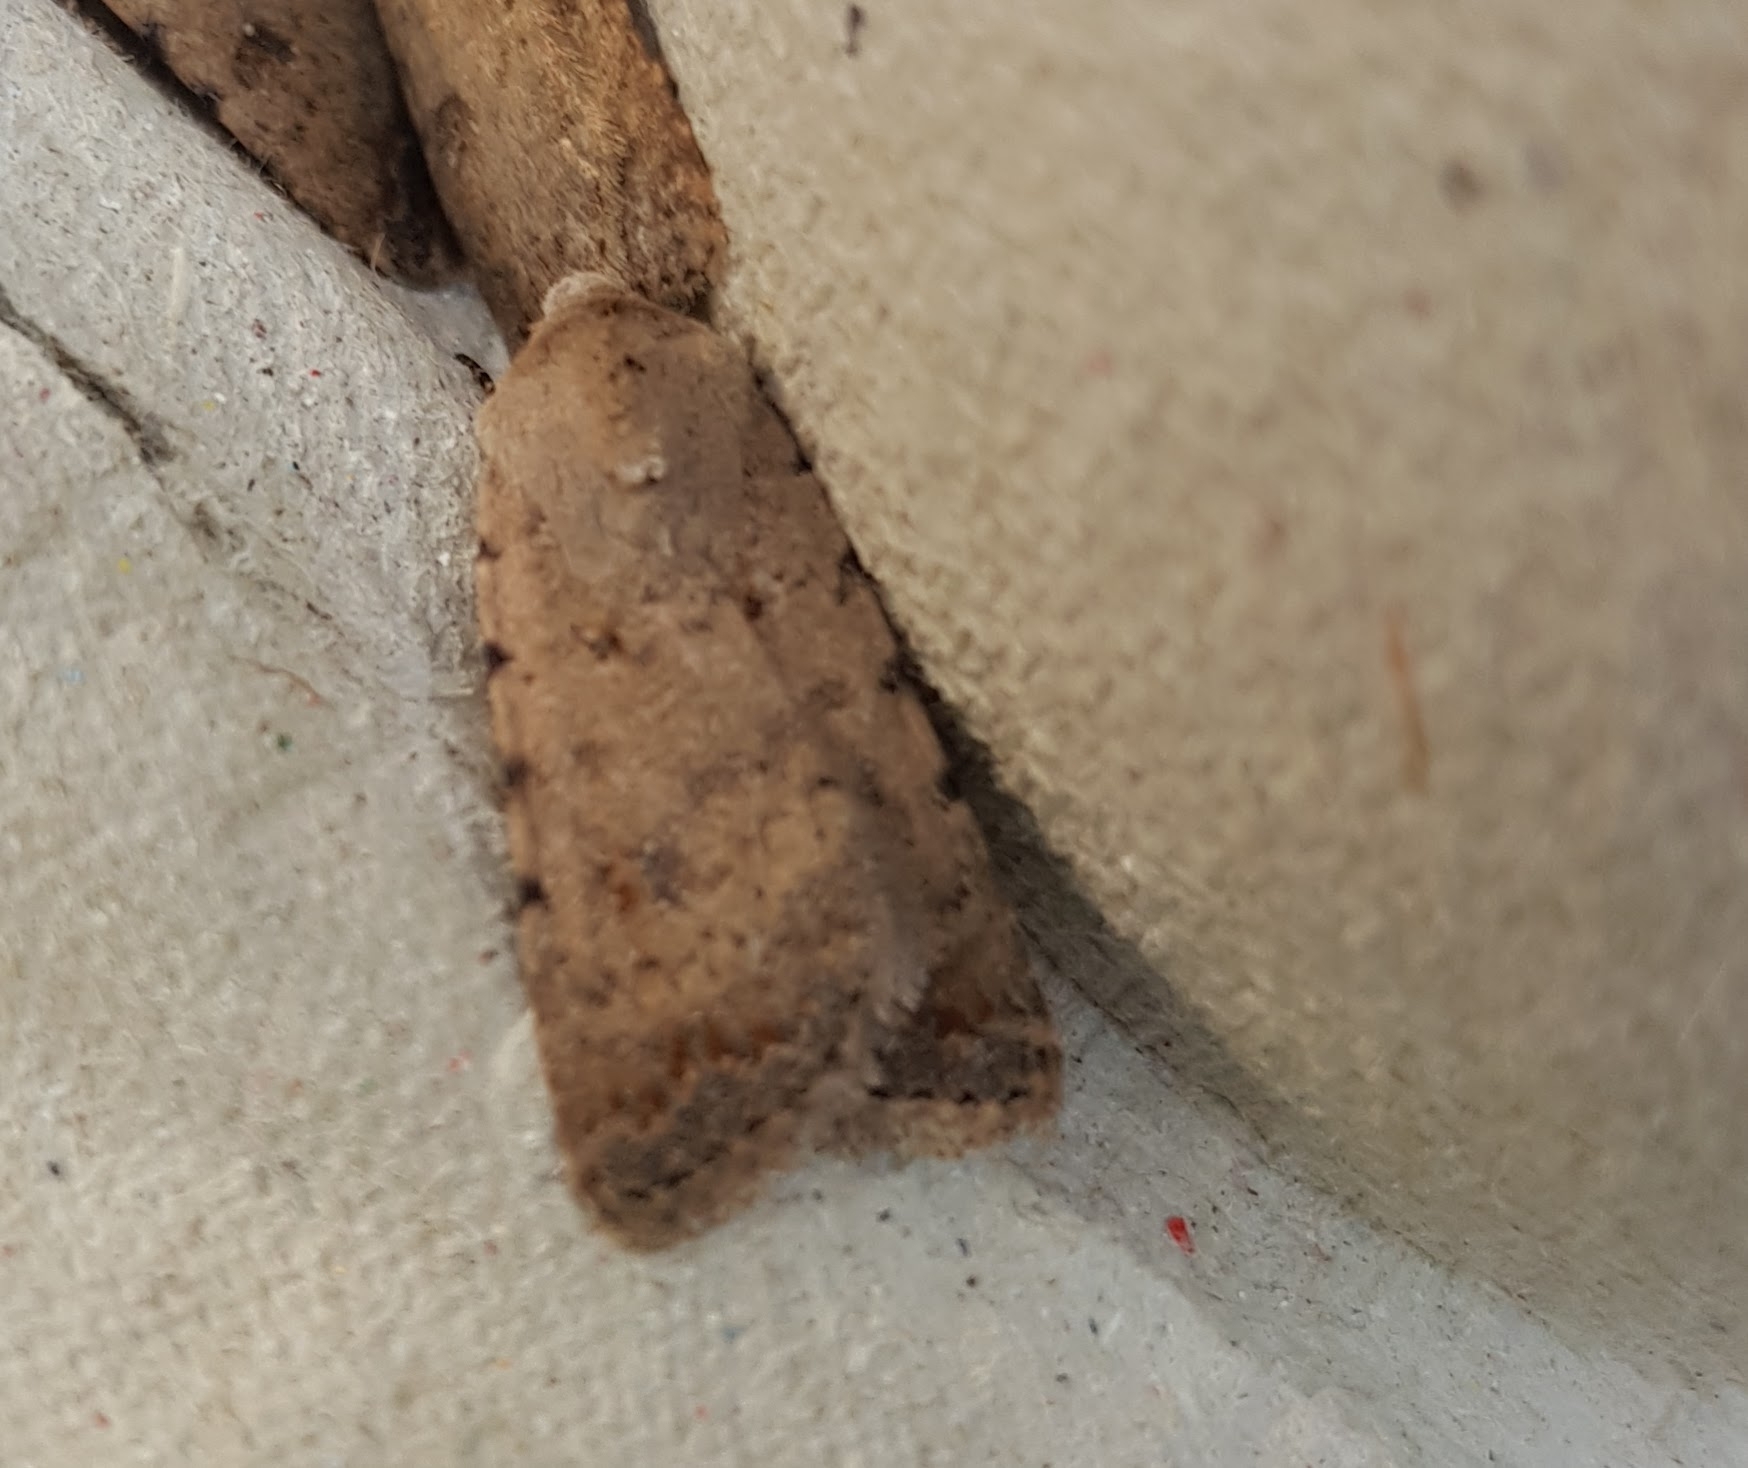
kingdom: Animalia
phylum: Arthropoda
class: Insecta
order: Lepidoptera
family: Noctuidae
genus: Caradrina
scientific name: Caradrina clavipalpis
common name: Pale mottled willow
